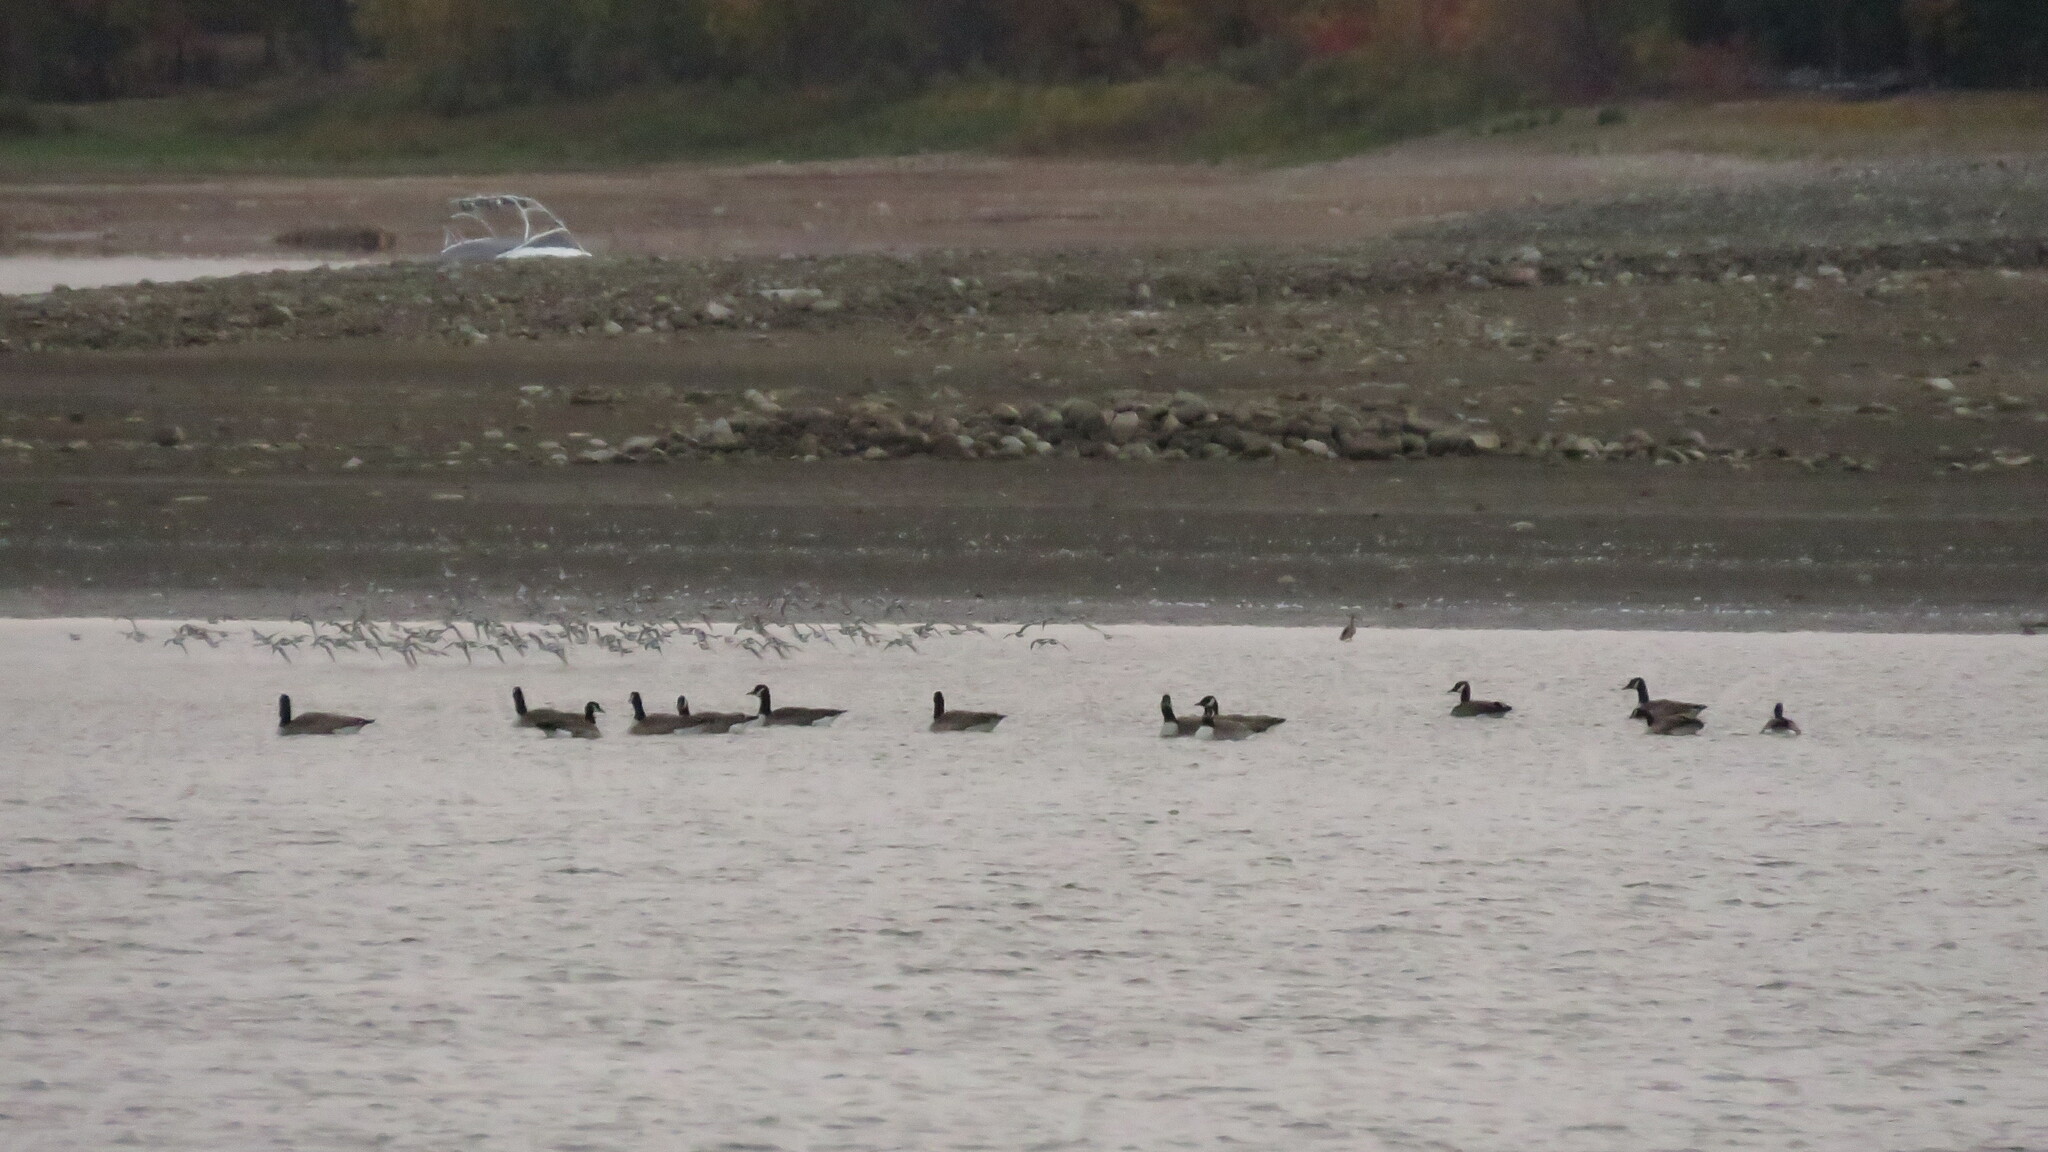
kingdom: Animalia
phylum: Chordata
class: Aves
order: Charadriiformes
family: Scolopacidae
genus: Limosa
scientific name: Limosa haemastica
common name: Hudsonian godwit
